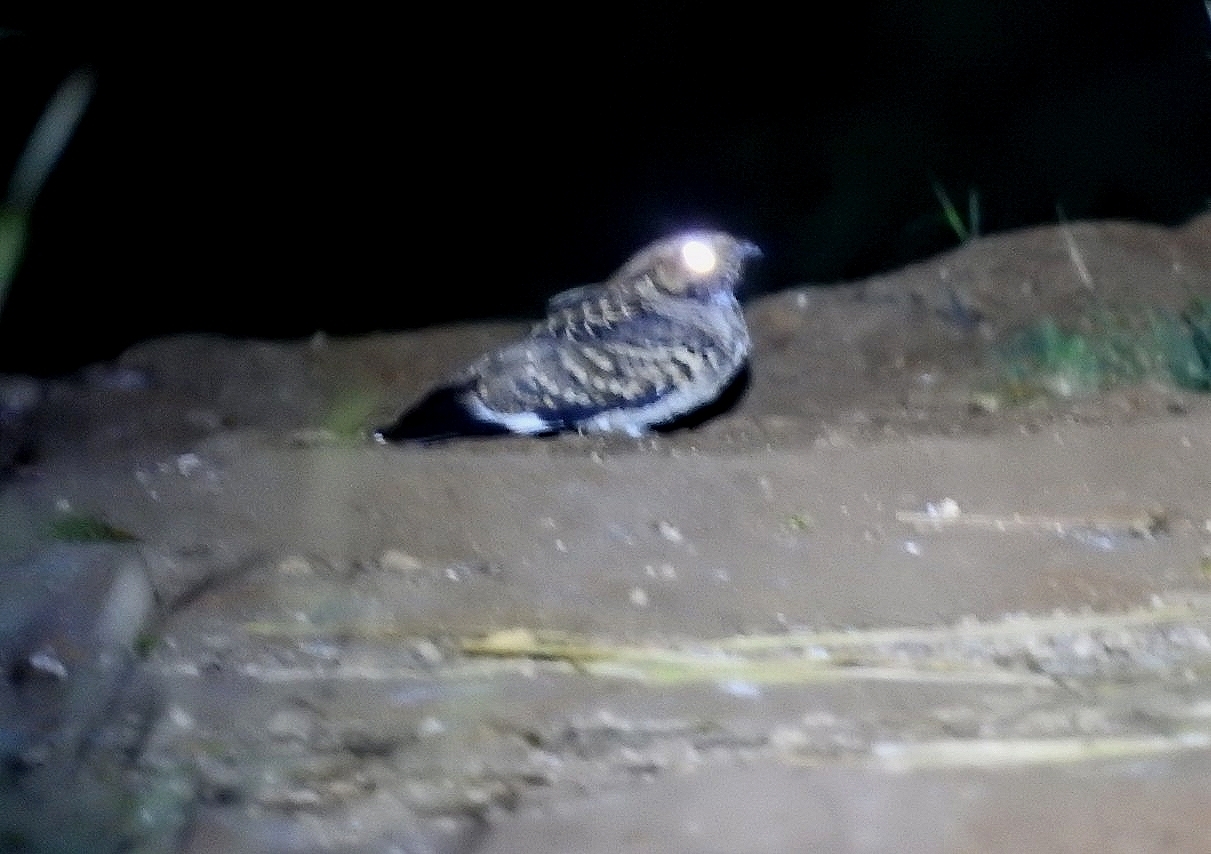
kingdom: Animalia
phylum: Chordata
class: Aves
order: Caprimulgiformes
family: Caprimulgidae
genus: Nyctidromus
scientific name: Nyctidromus albicollis
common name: Pauraque
